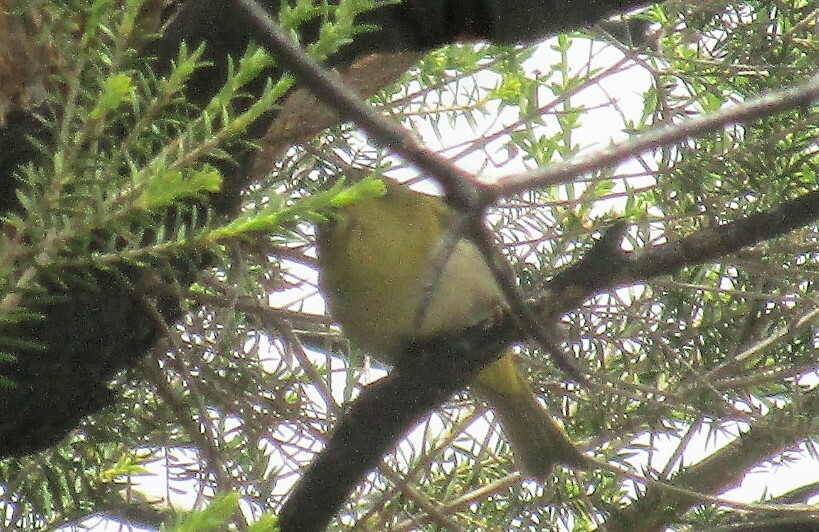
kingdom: Animalia
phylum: Chordata
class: Aves
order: Passeriformes
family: Zosteropidae
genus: Zosterops
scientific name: Zosterops lateralis
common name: Silvereye
